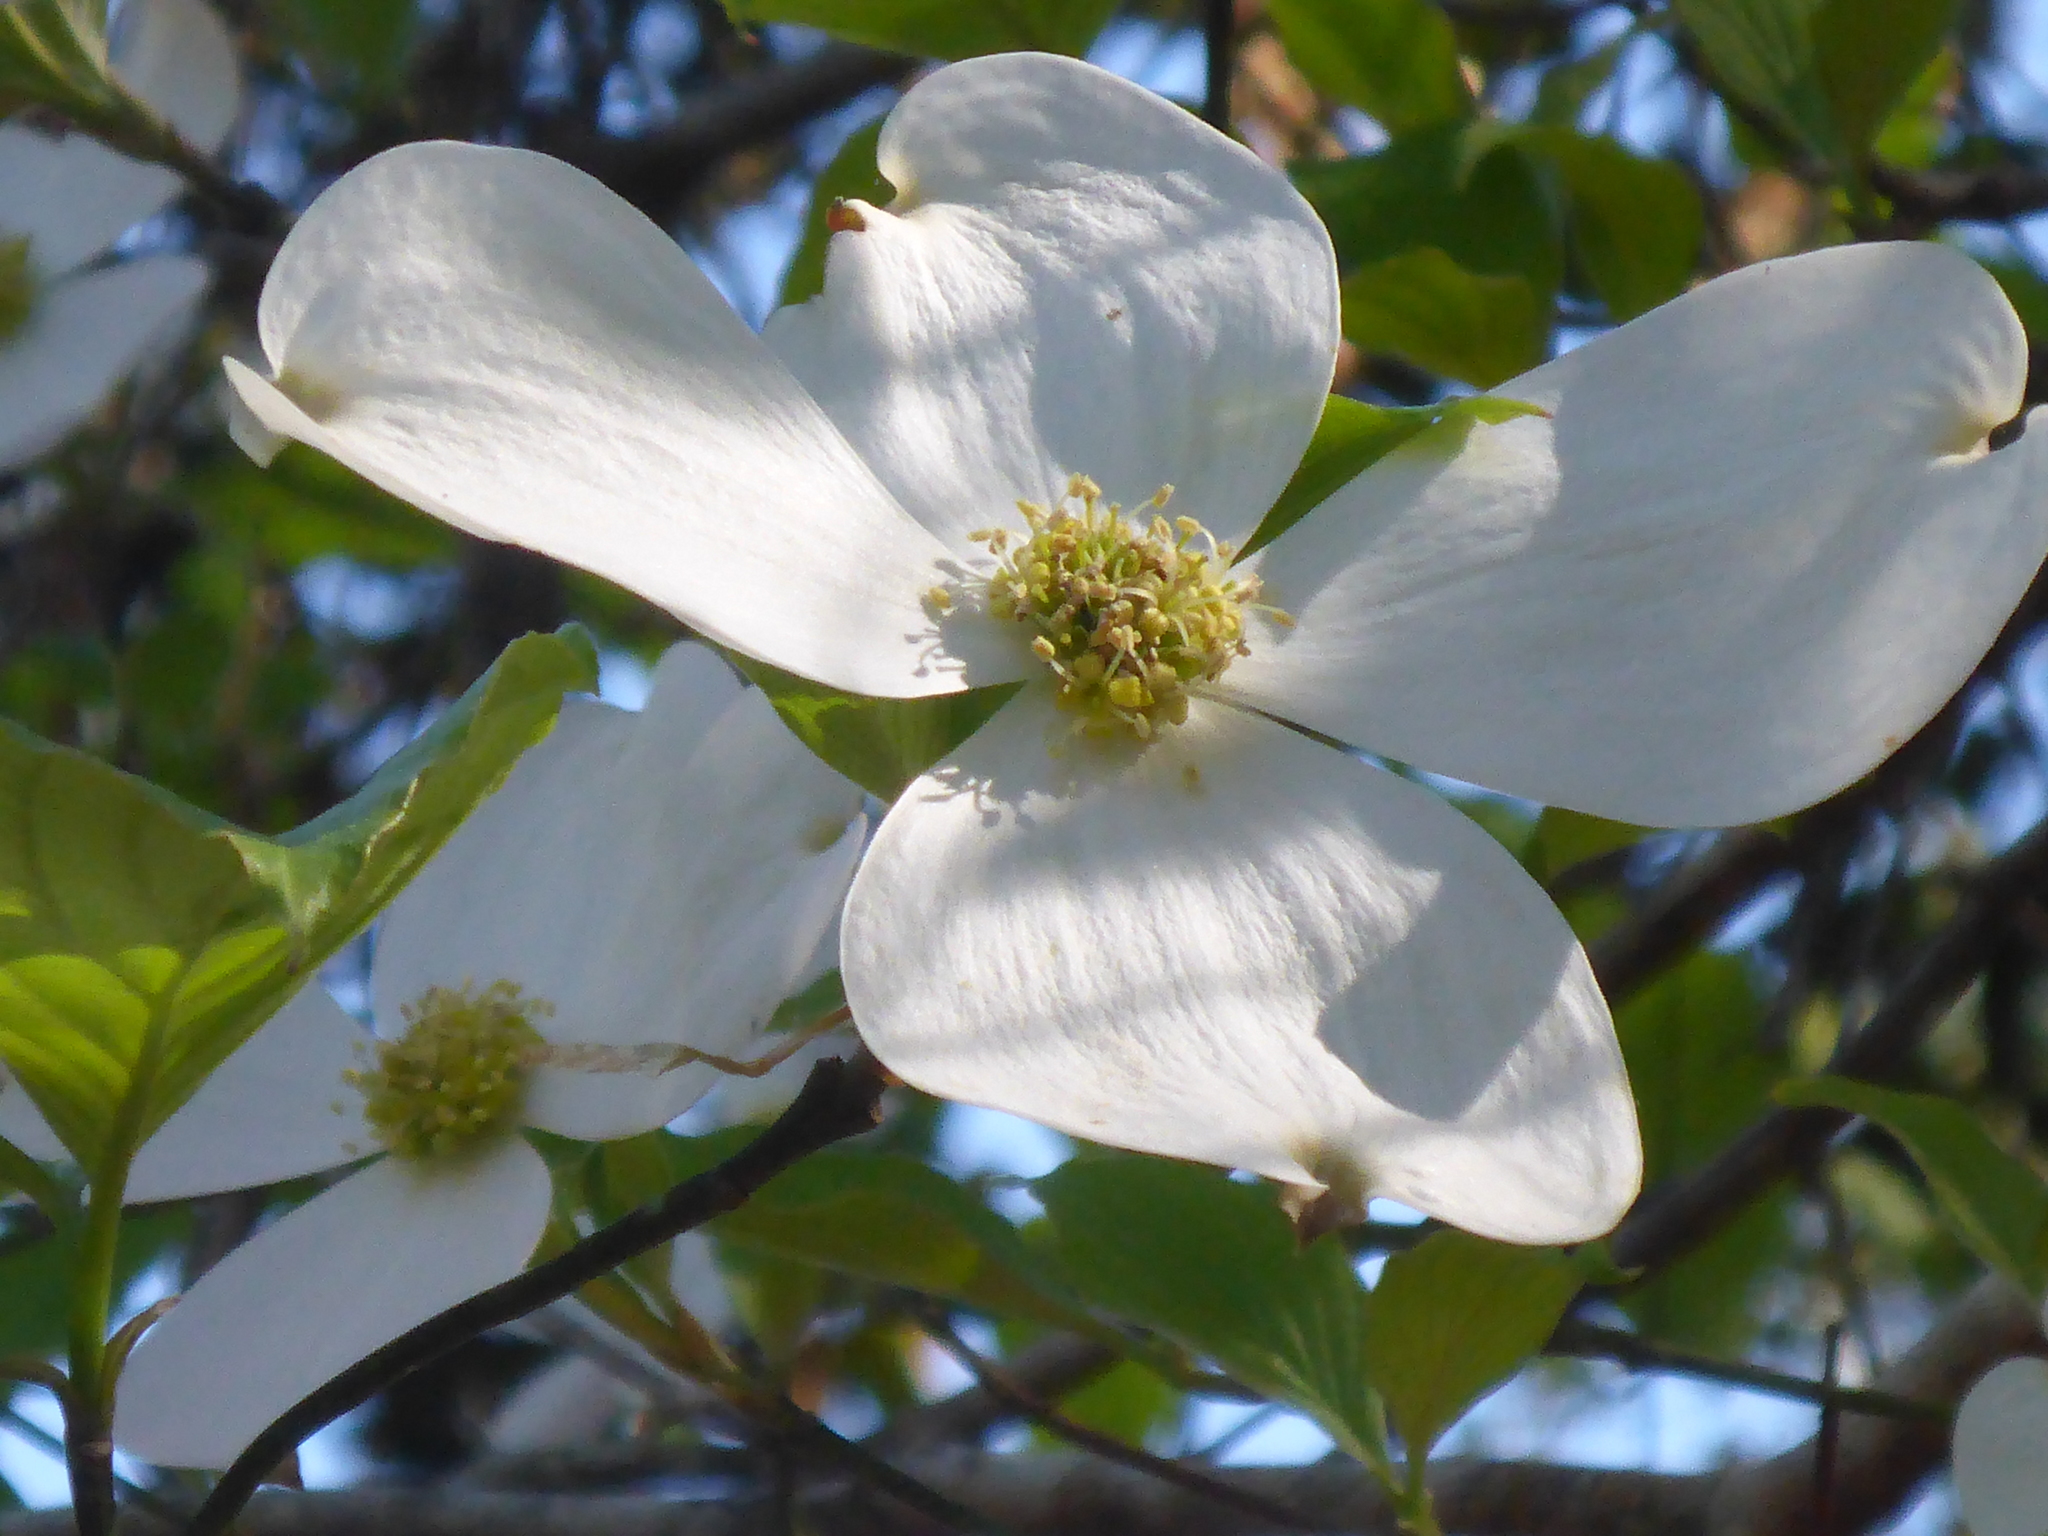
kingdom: Plantae
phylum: Tracheophyta
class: Magnoliopsida
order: Cornales
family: Cornaceae
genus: Cornus
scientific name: Cornus florida
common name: Flowering dogwood
